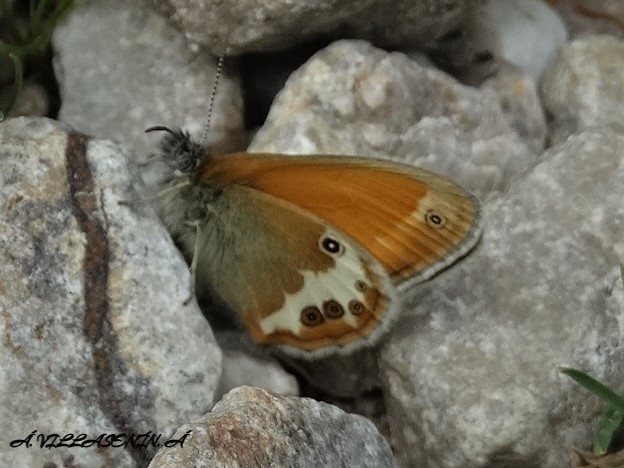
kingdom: Animalia
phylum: Arthropoda
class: Insecta
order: Lepidoptera
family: Nymphalidae
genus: Coenonympha
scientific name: Coenonympha arcania
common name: Pearly heath
